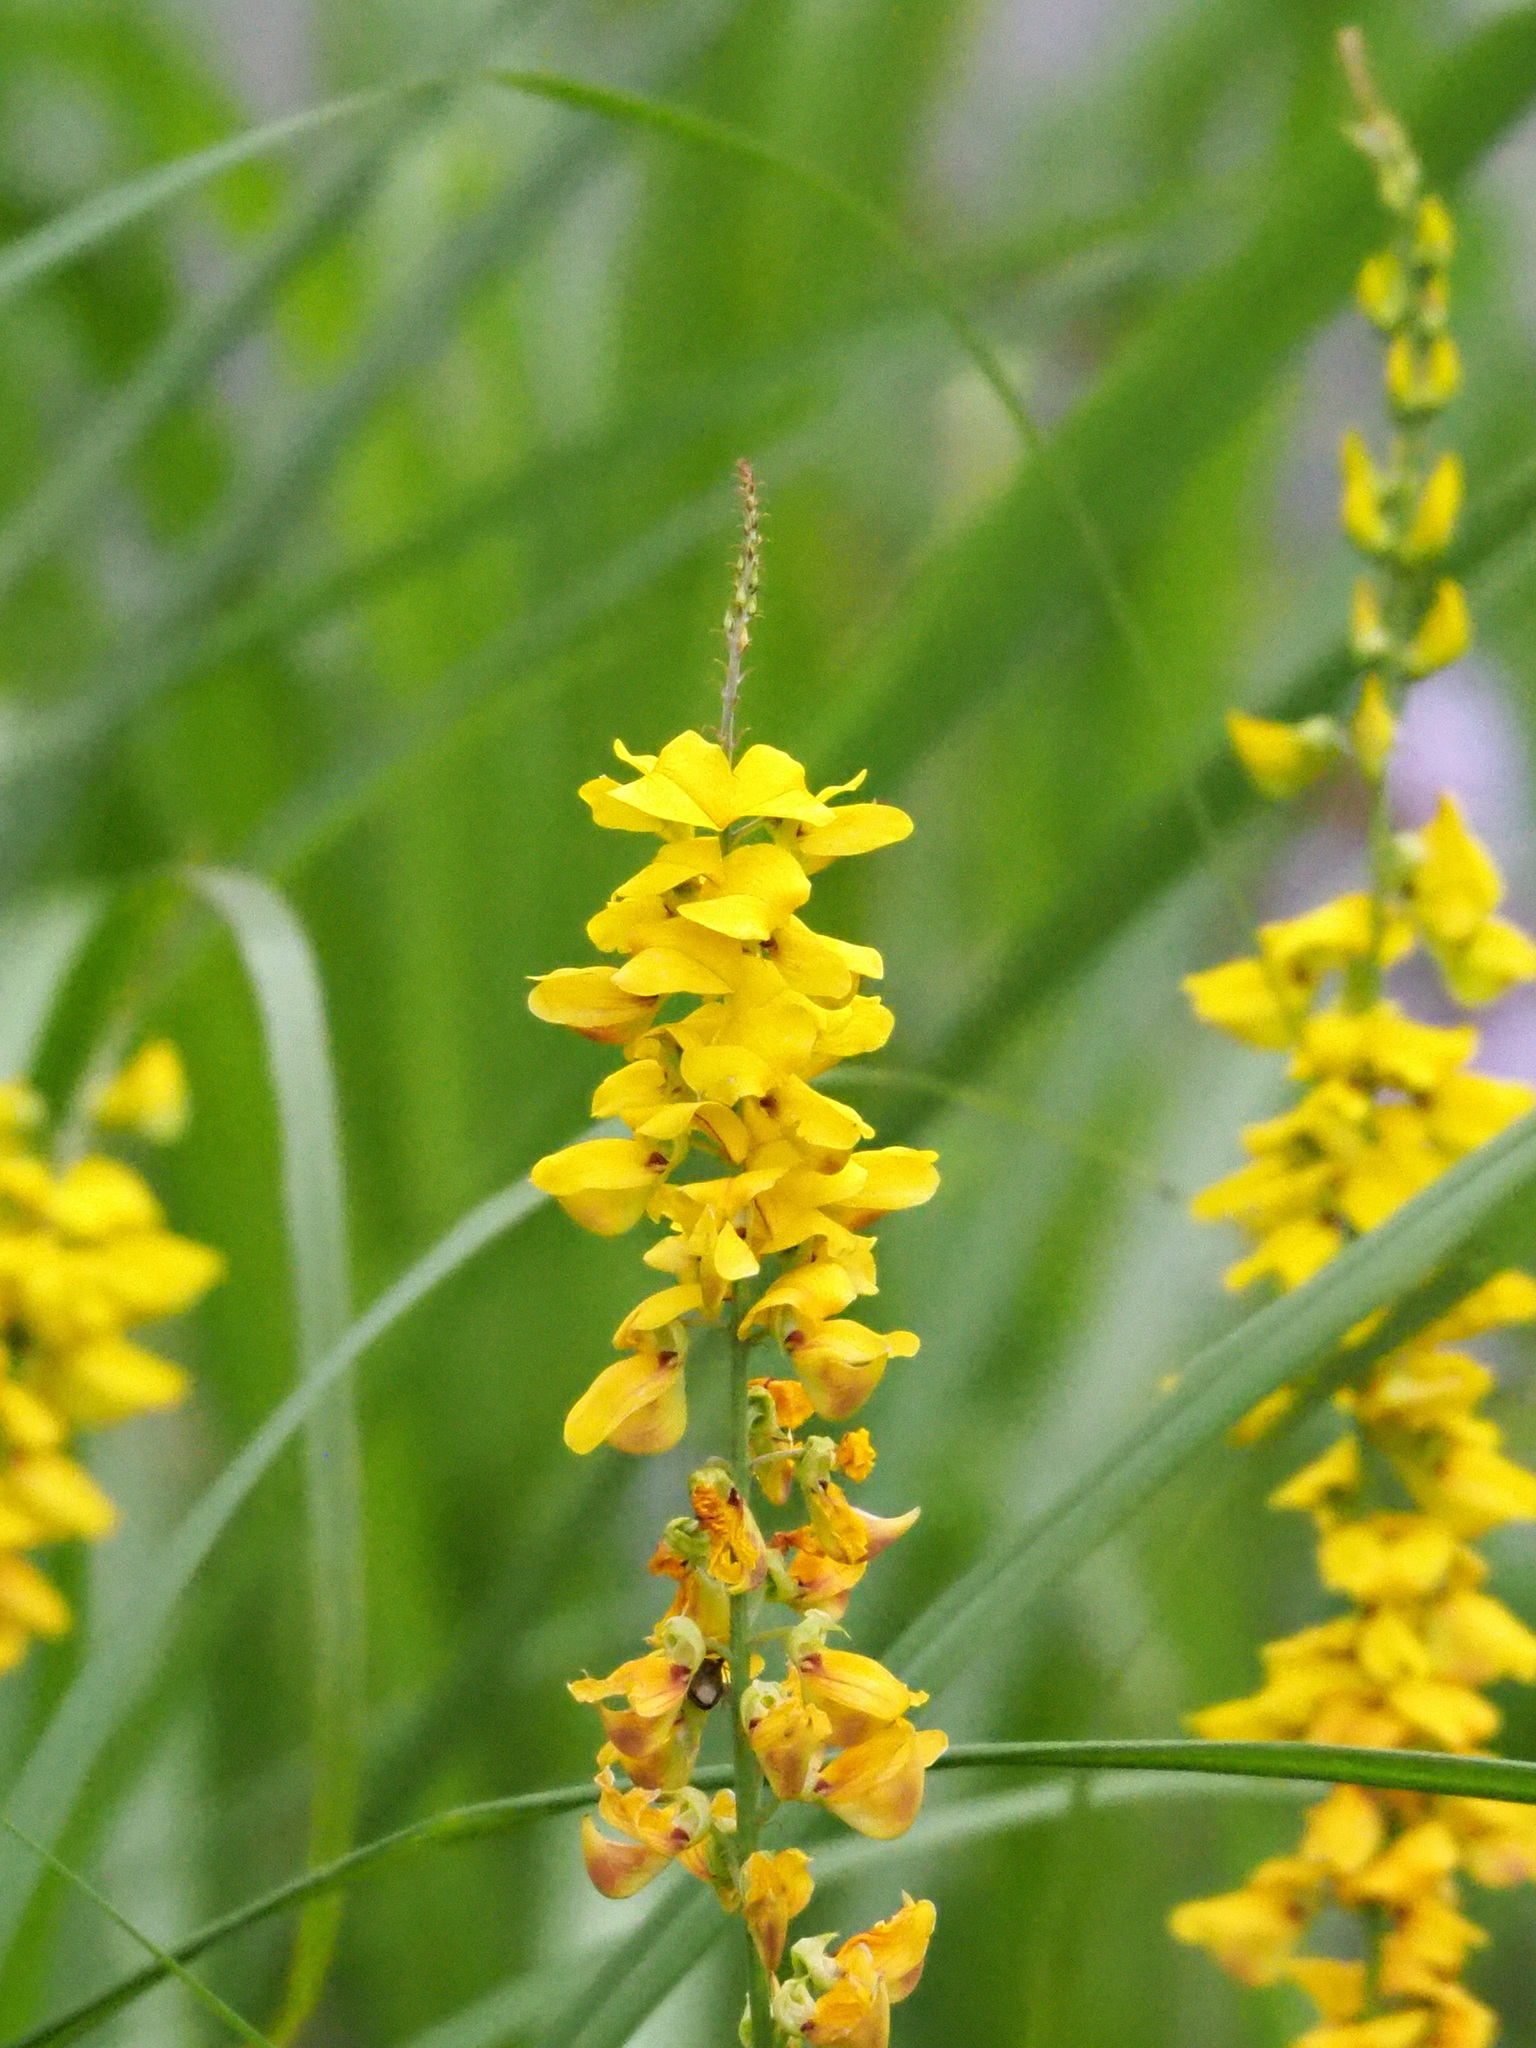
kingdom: Plantae
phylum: Tracheophyta
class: Magnoliopsida
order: Fabales
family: Fabaceae
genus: Crotalaria
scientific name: Crotalaria trichotoma
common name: West indian rattlebox
